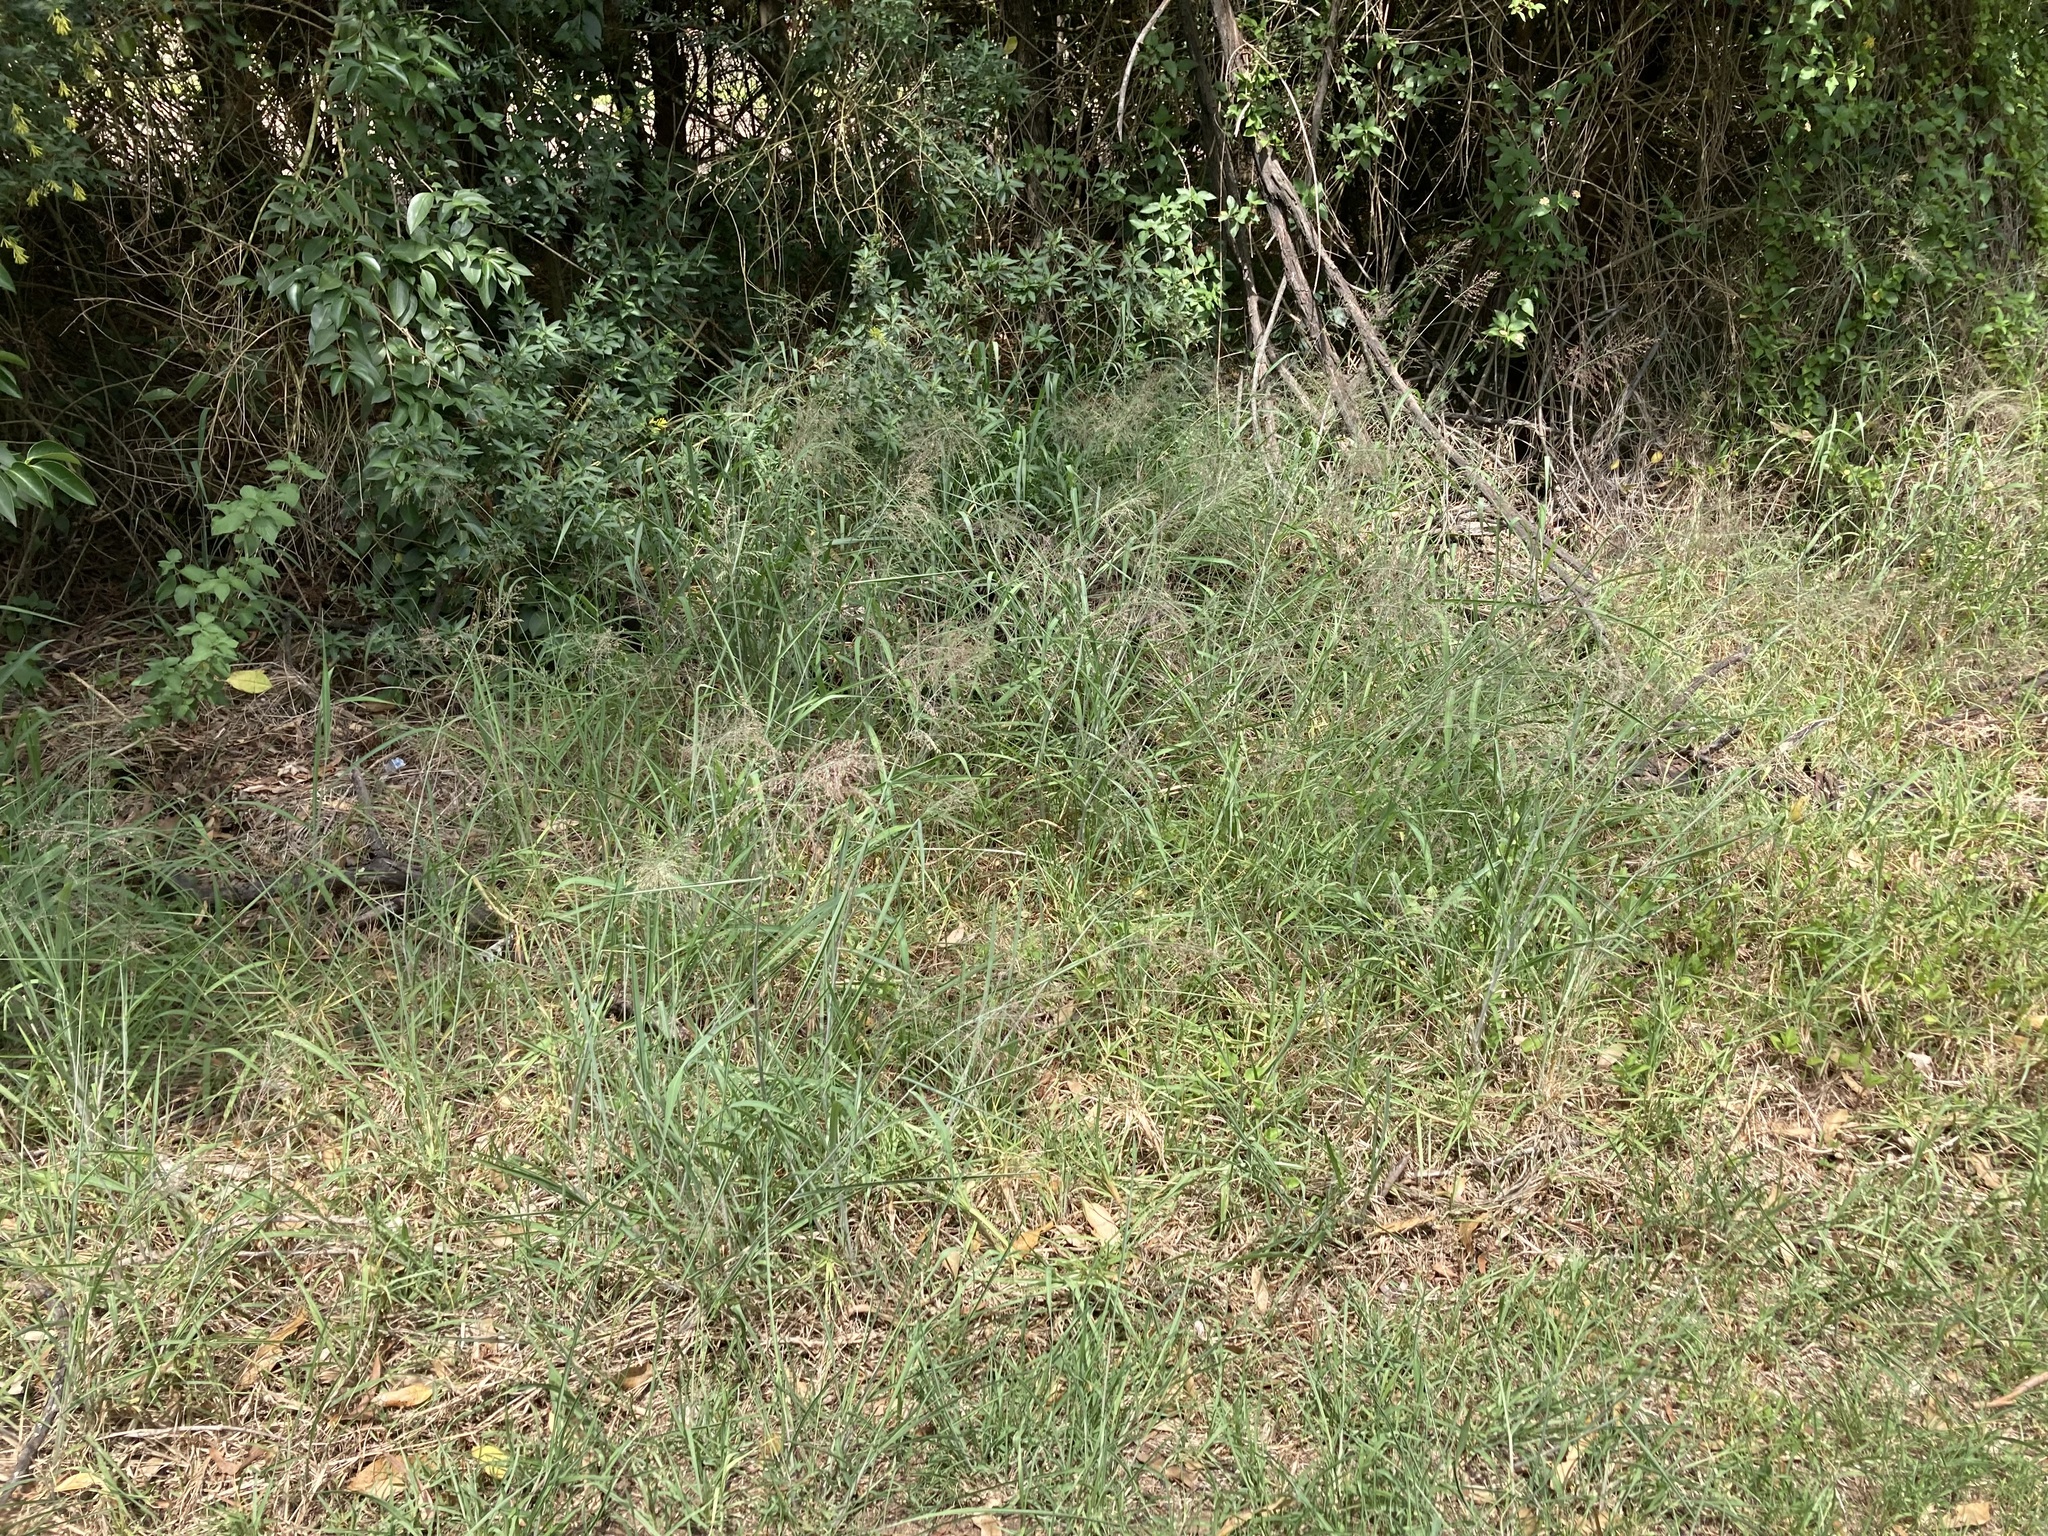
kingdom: Plantae
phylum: Tracheophyta
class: Liliopsida
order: Poales
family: Poaceae
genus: Megathyrsus
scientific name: Megathyrsus maximus
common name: Guineagrass
